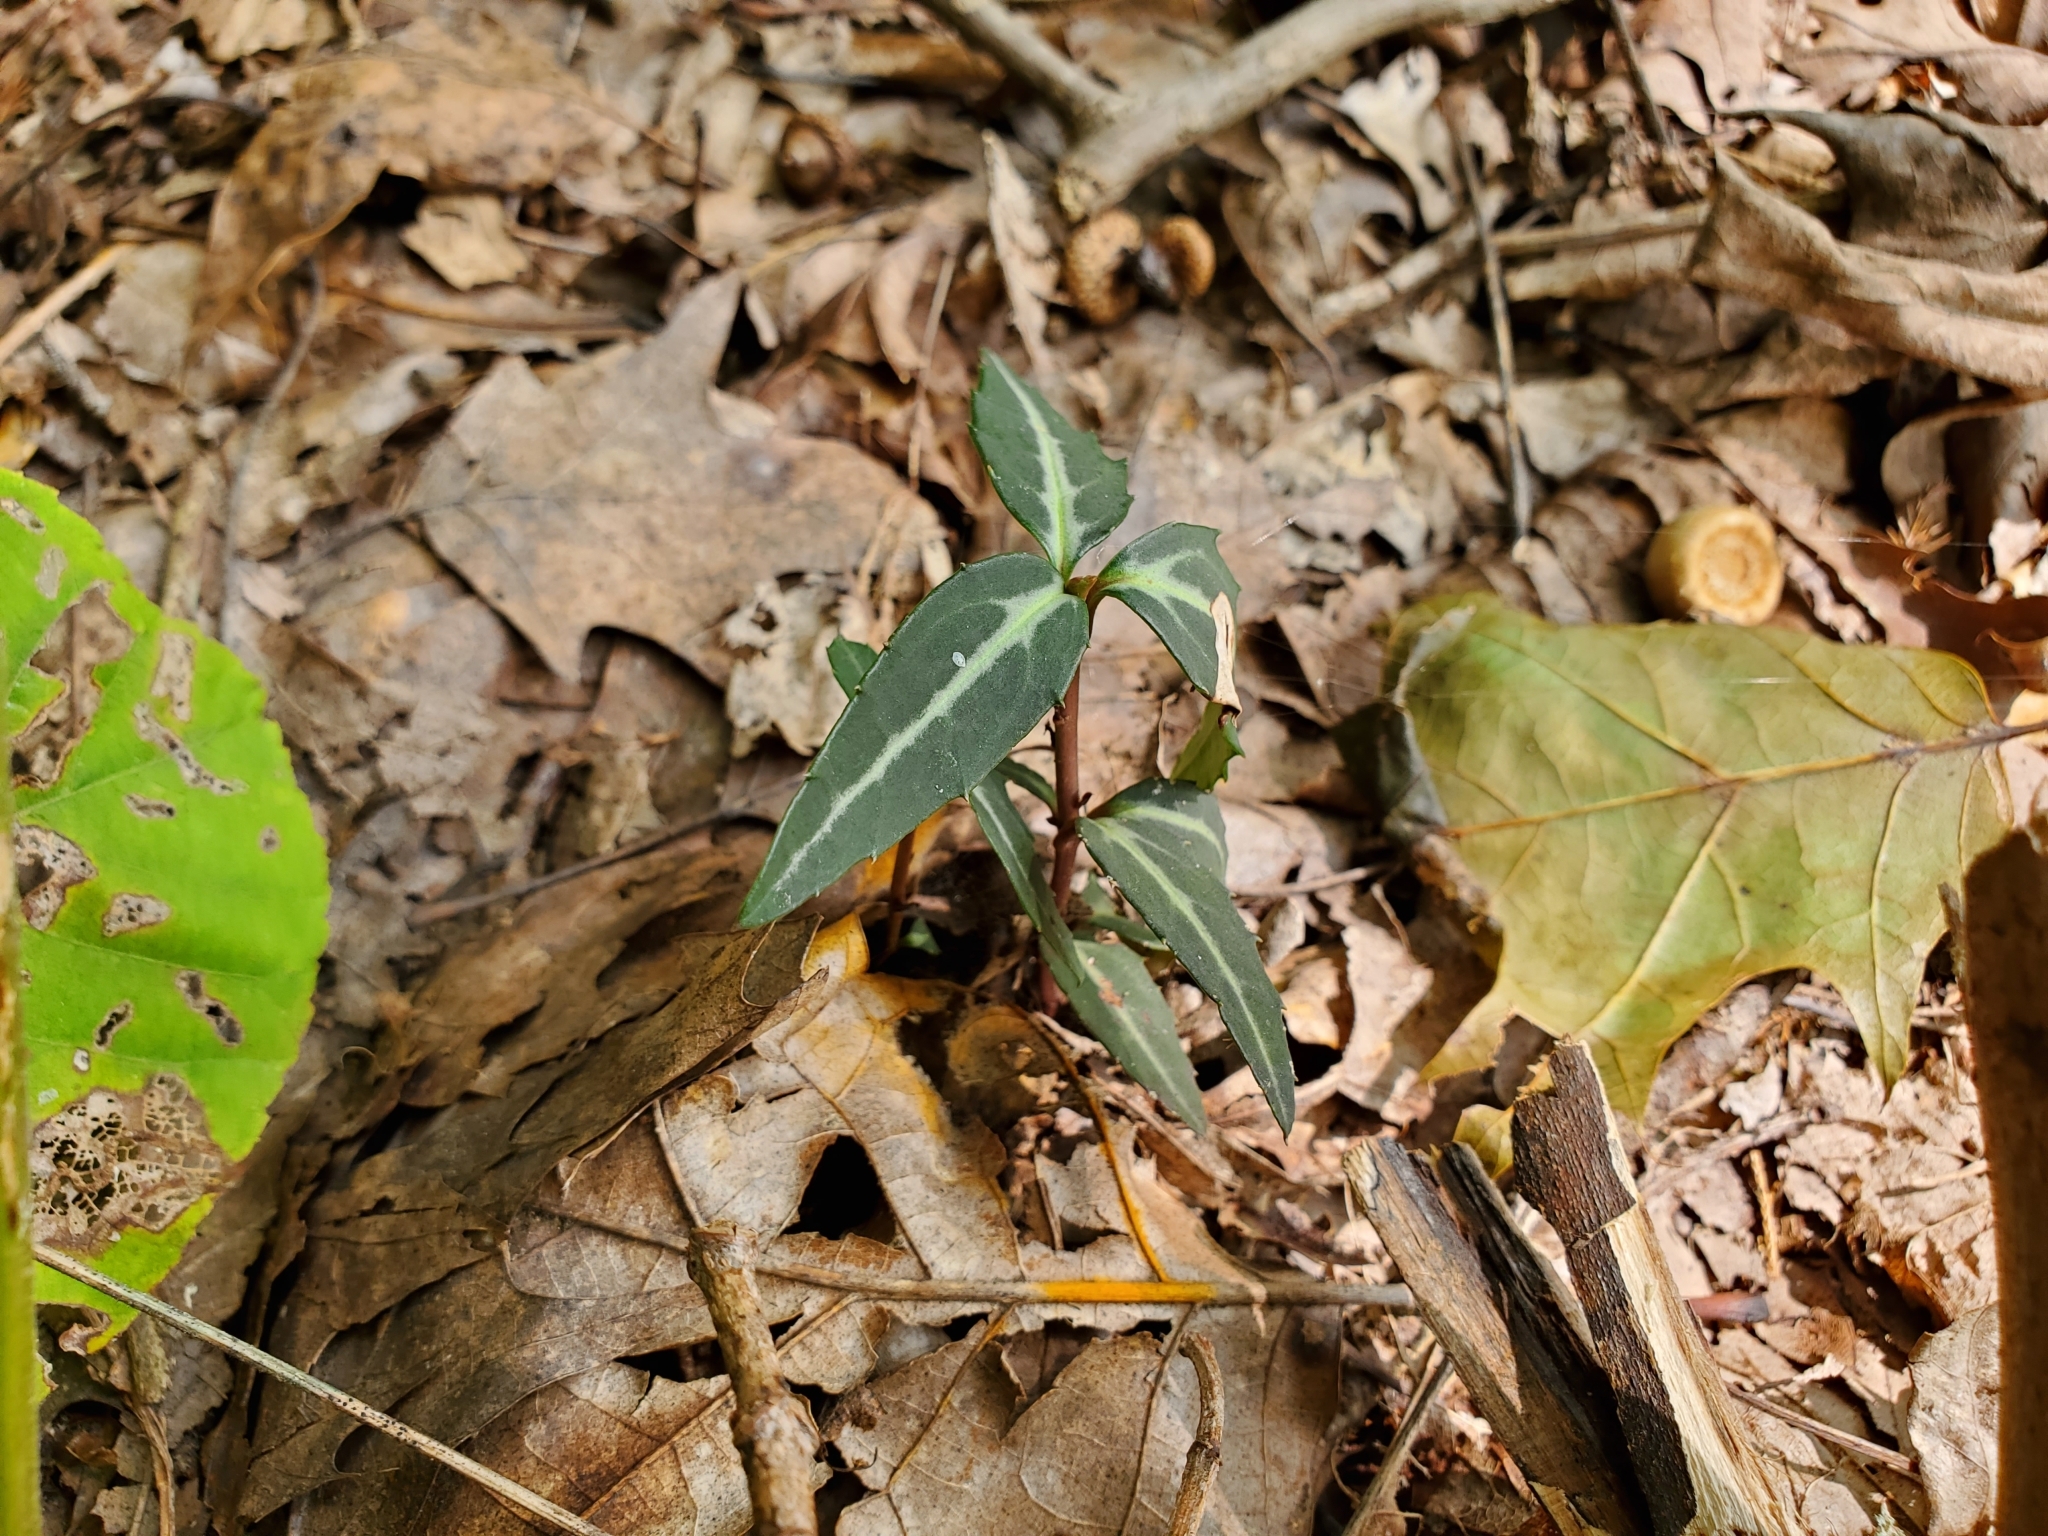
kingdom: Plantae
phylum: Tracheophyta
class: Magnoliopsida
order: Ericales
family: Ericaceae
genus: Chimaphila
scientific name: Chimaphila maculata
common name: Spotted pipsissewa
